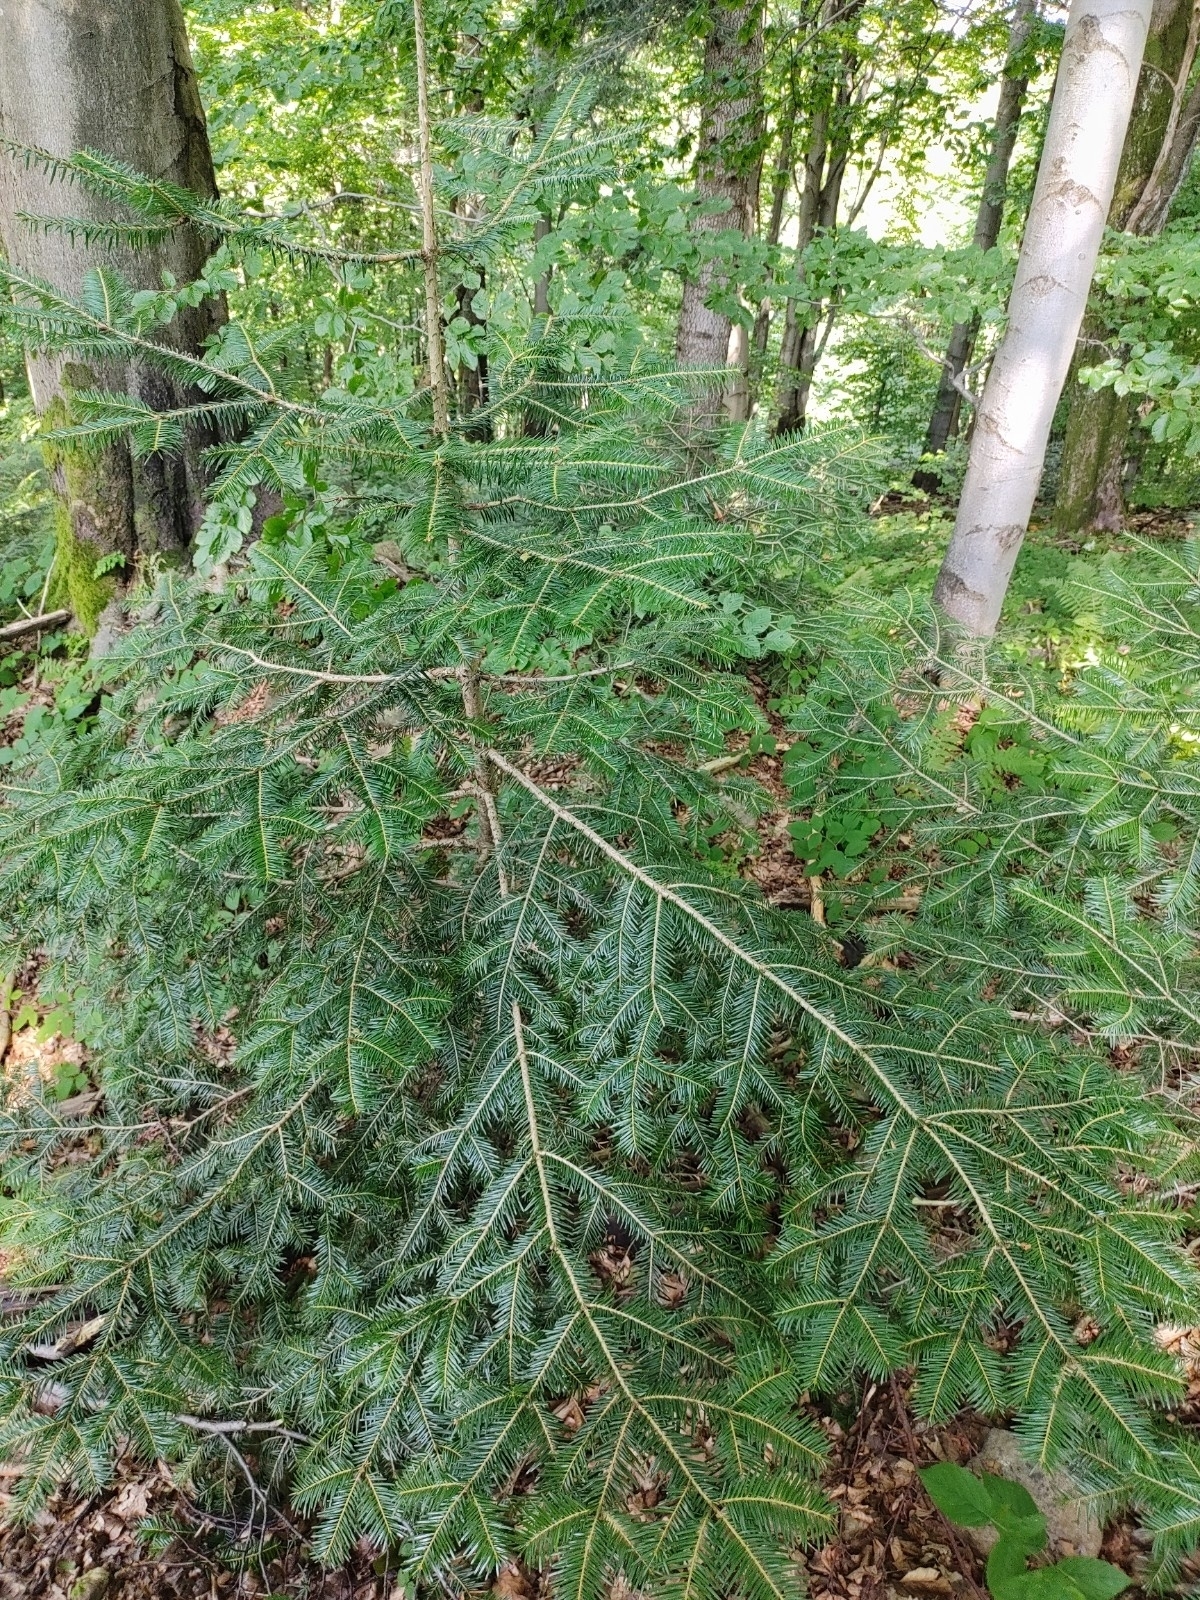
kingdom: Plantae
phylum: Tracheophyta
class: Pinopsida
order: Pinales
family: Pinaceae
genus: Abies
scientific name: Abies alba
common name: Silver fir
